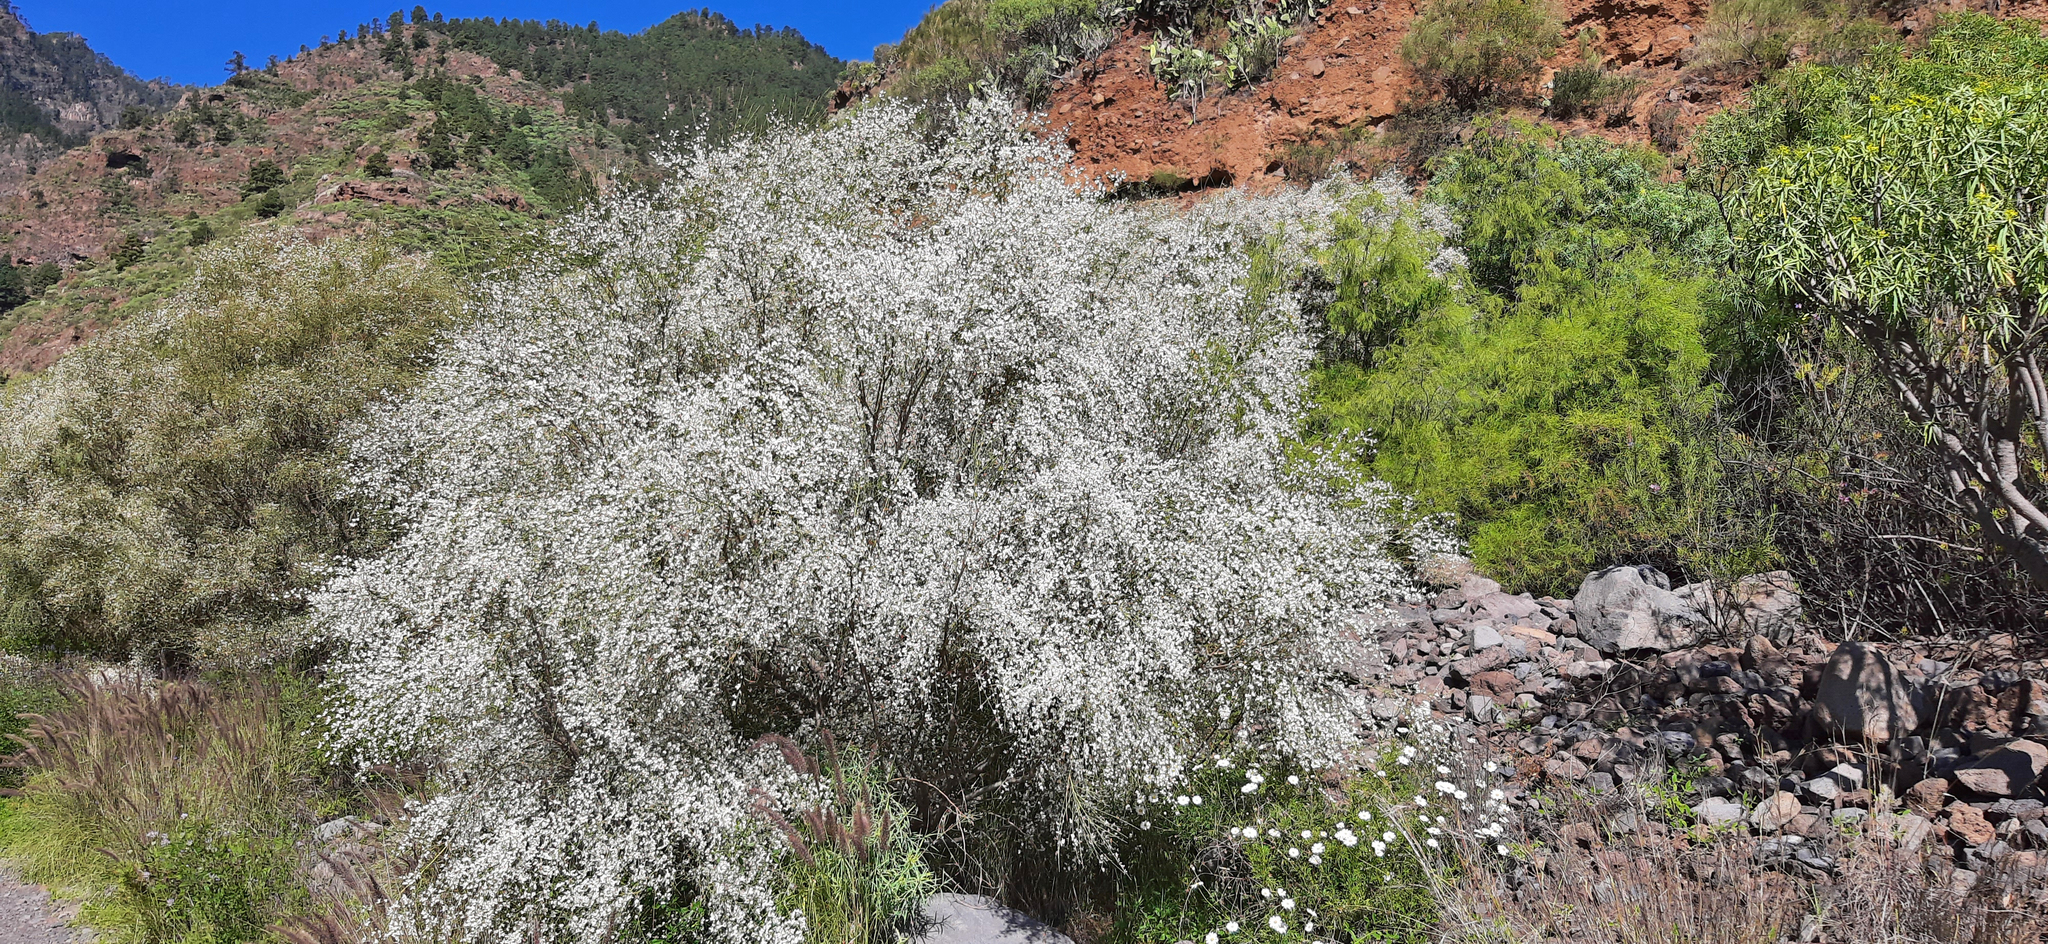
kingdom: Plantae
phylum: Tracheophyta
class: Magnoliopsida
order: Fabales
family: Fabaceae
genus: Retama
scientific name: Retama rhodorhizoides
